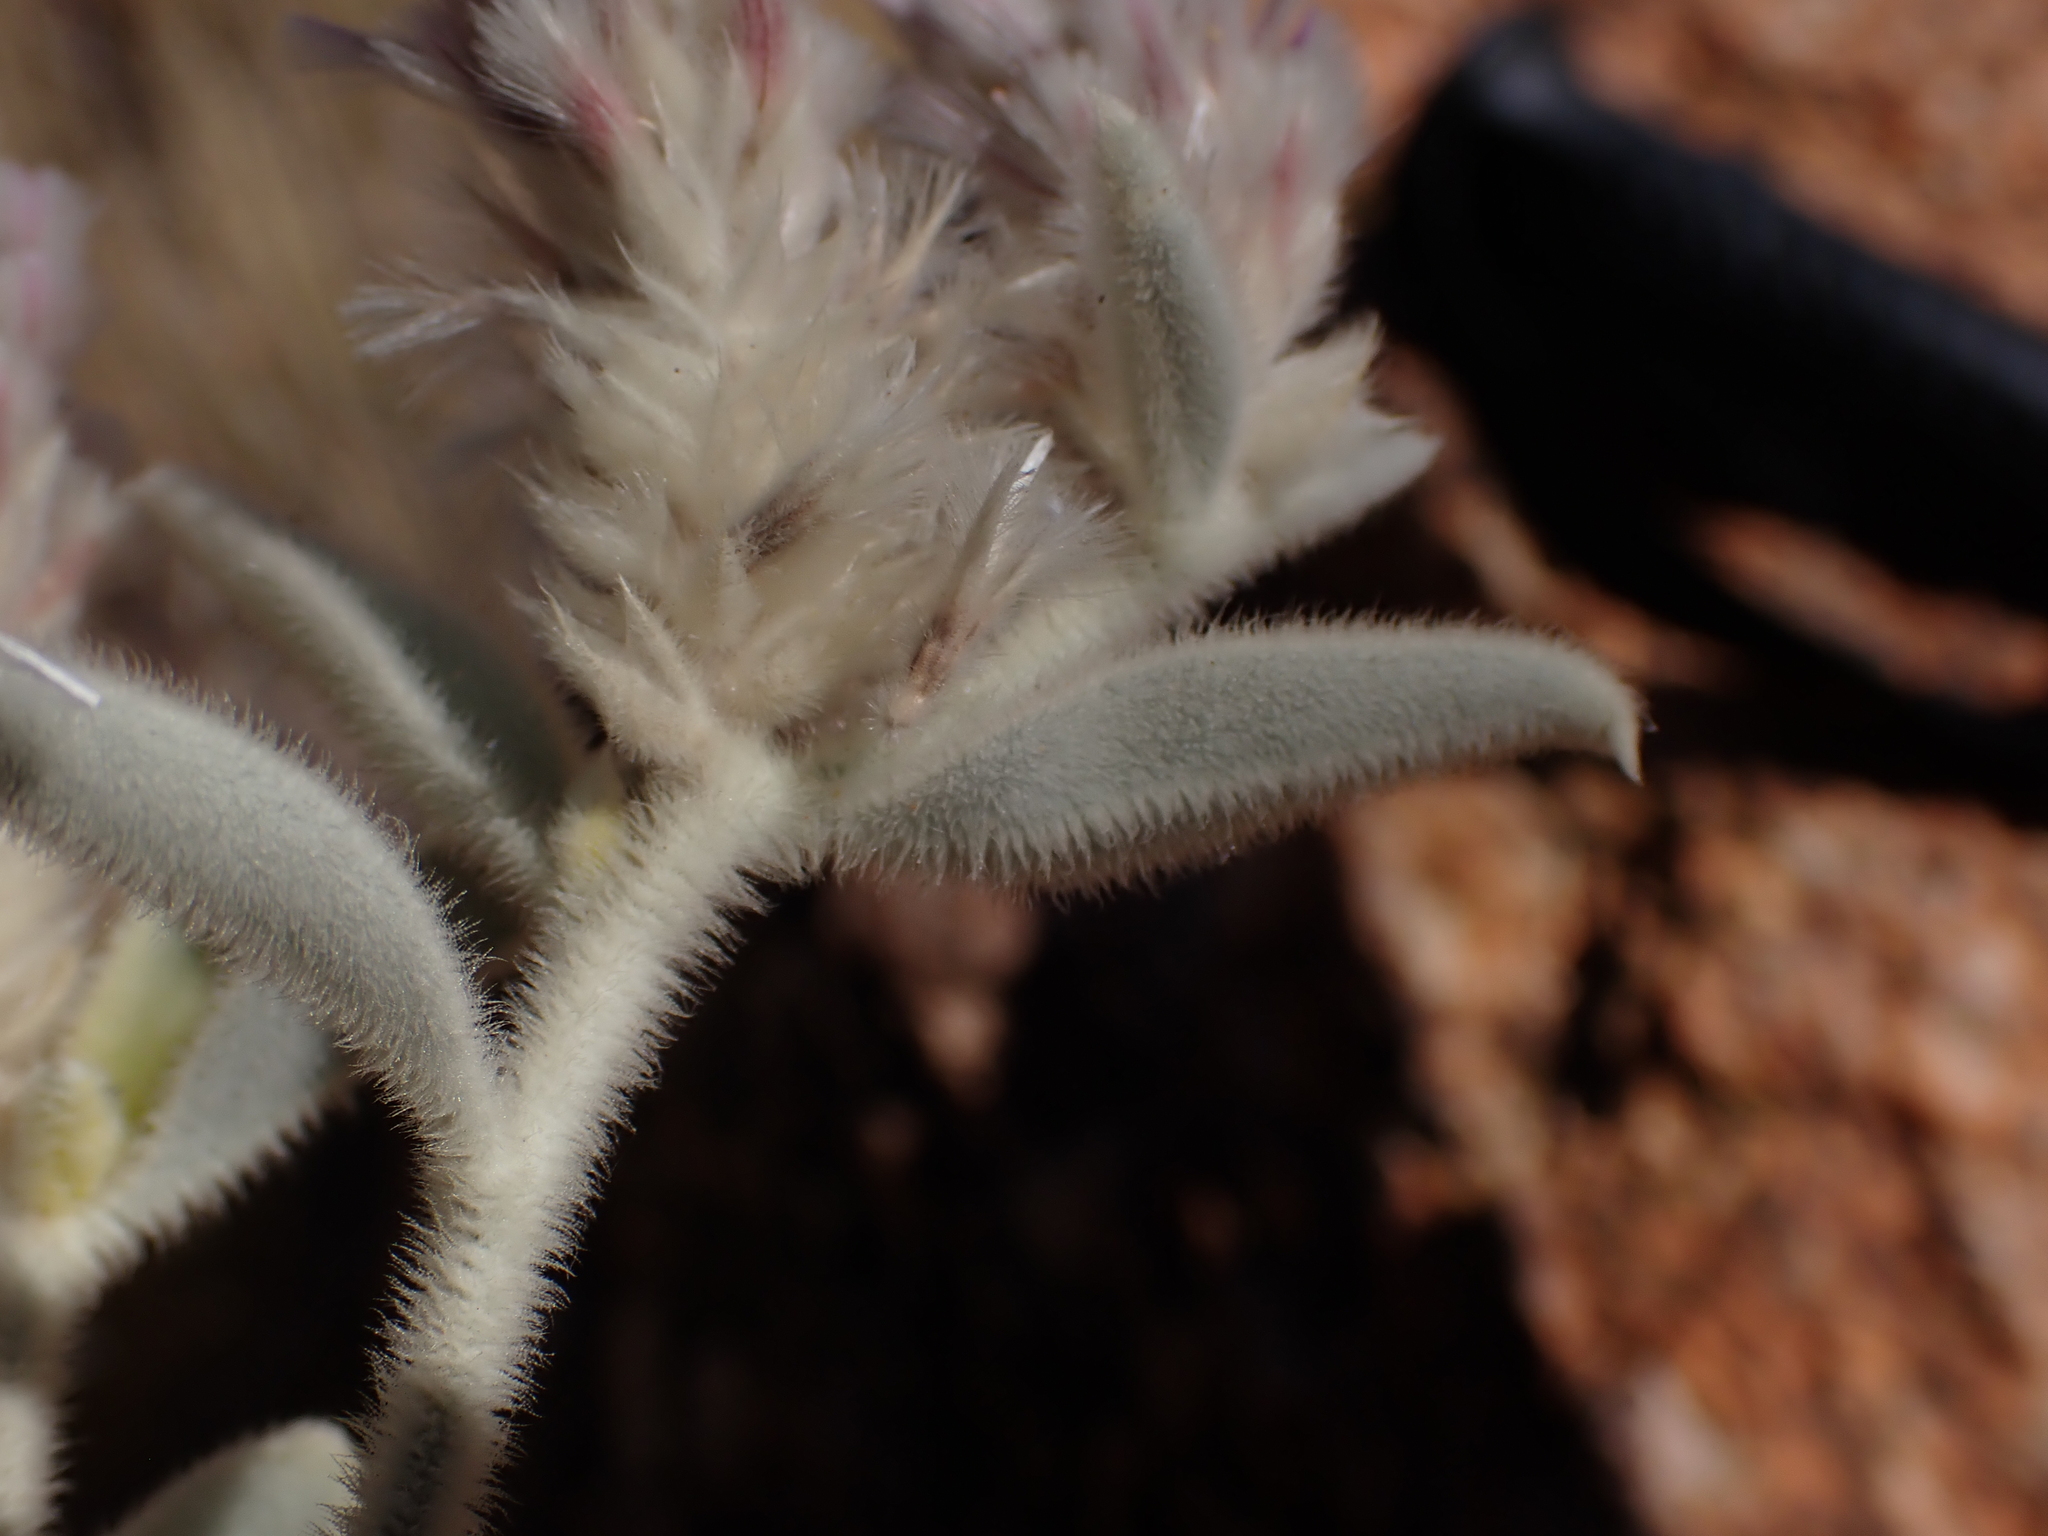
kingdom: Plantae
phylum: Tracheophyta
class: Magnoliopsida
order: Caryophyllales
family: Amaranthaceae
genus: Ptilotus
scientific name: Ptilotus incanus
